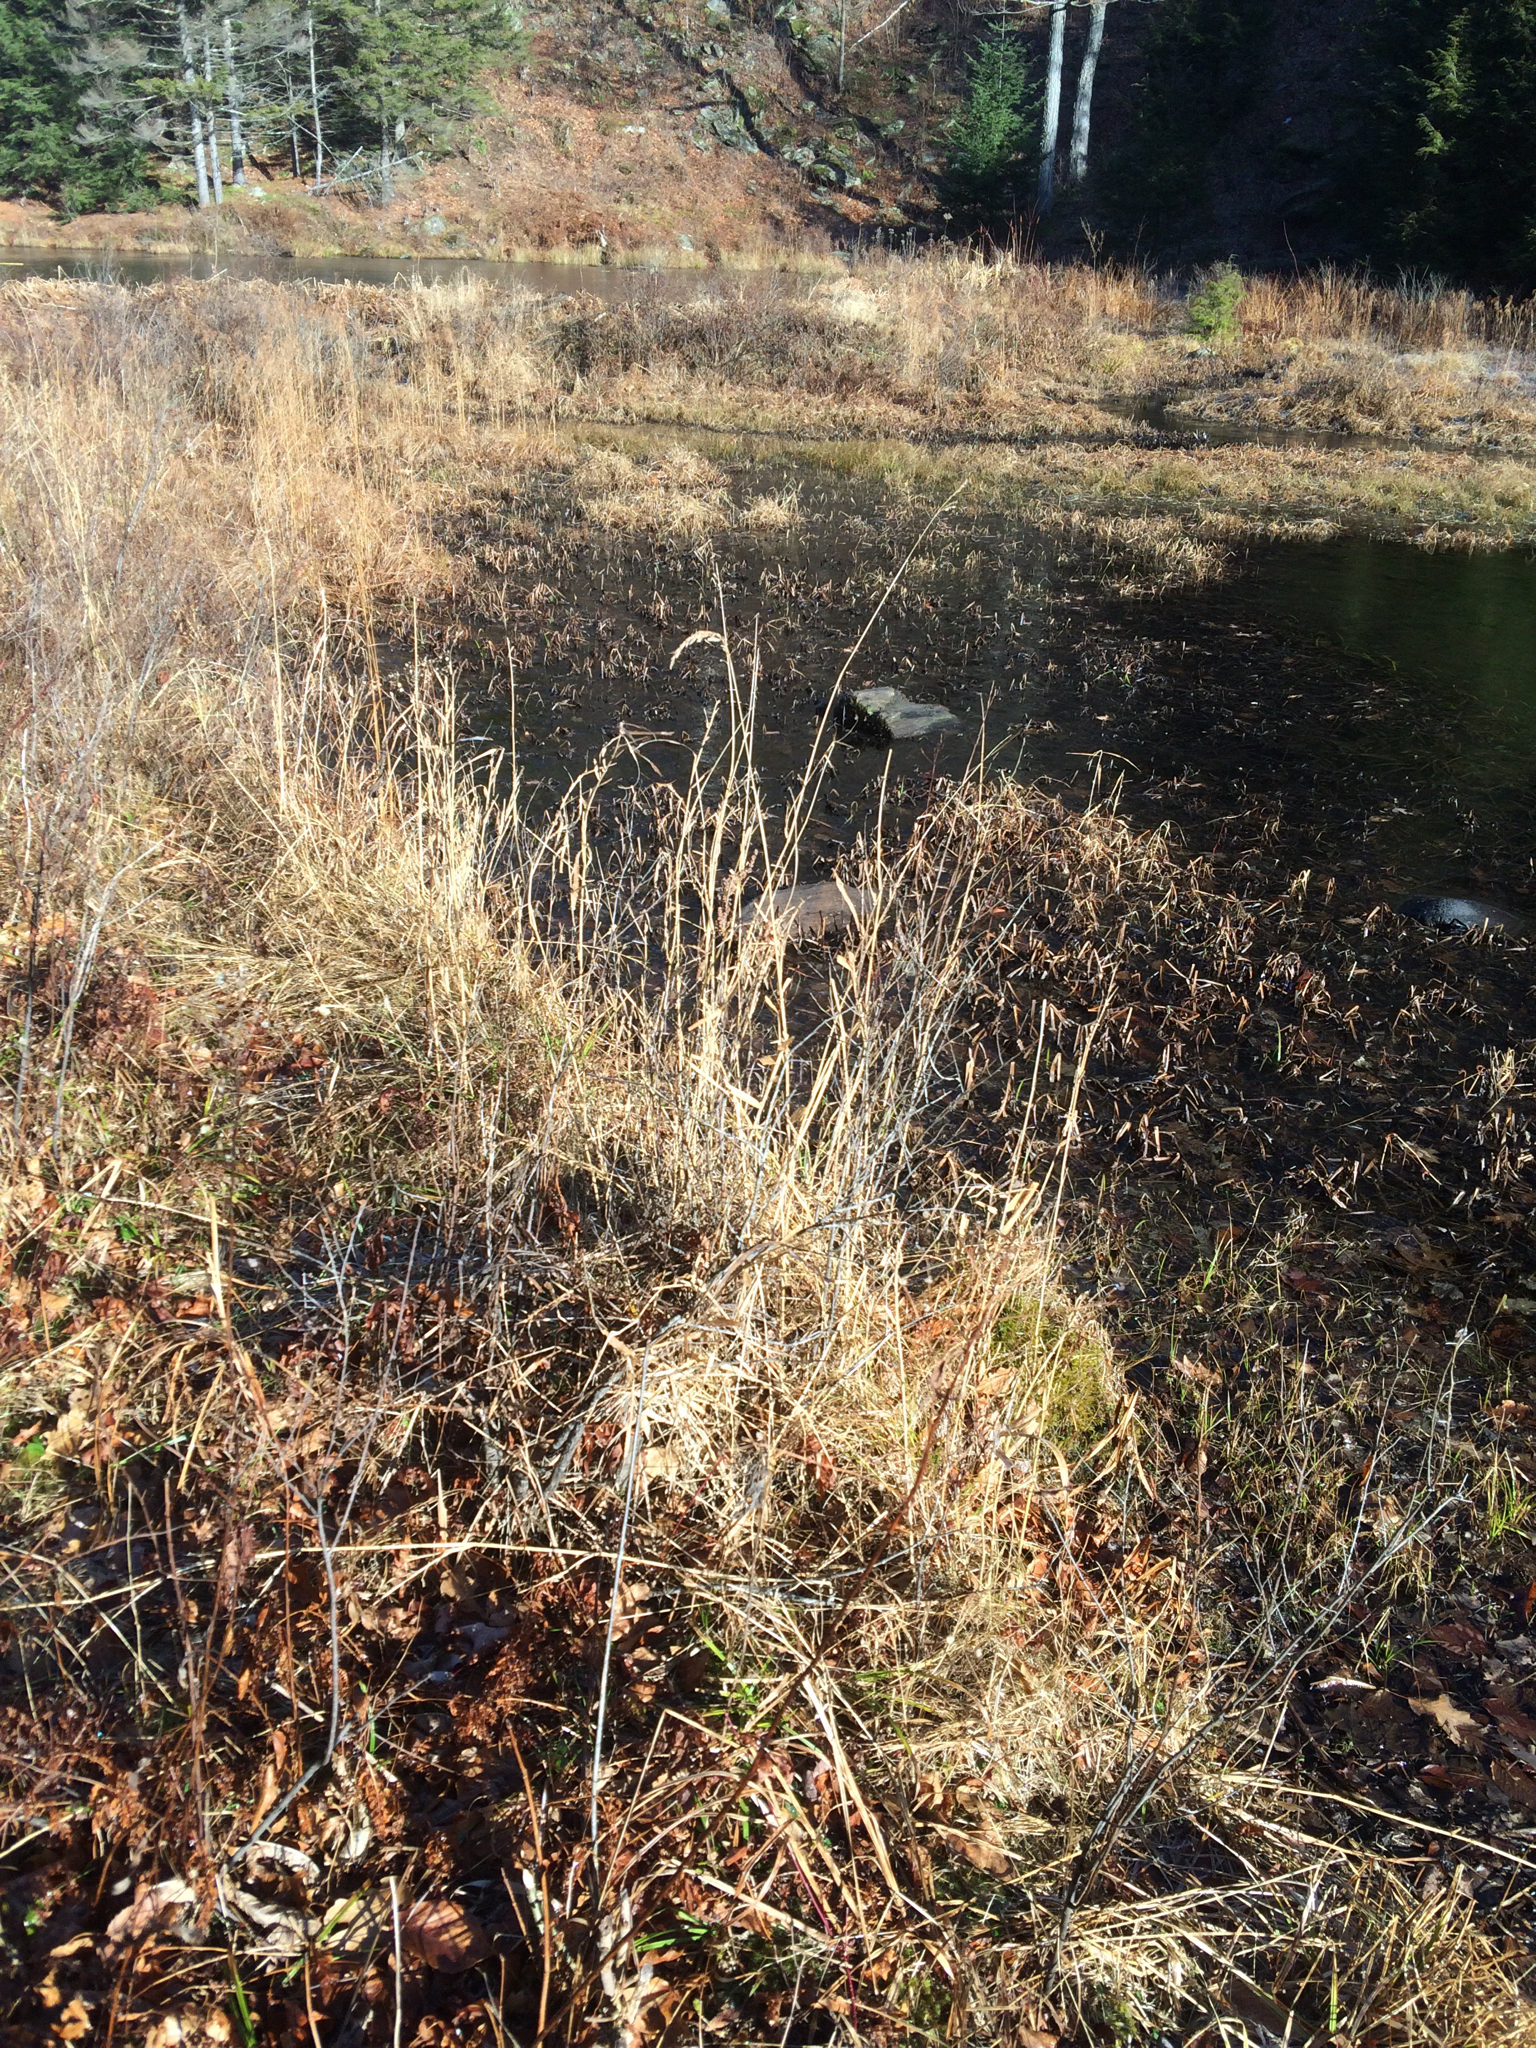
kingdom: Plantae
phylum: Tracheophyta
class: Liliopsida
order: Poales
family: Poaceae
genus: Phalaris
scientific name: Phalaris arundinacea
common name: Reed canary-grass
